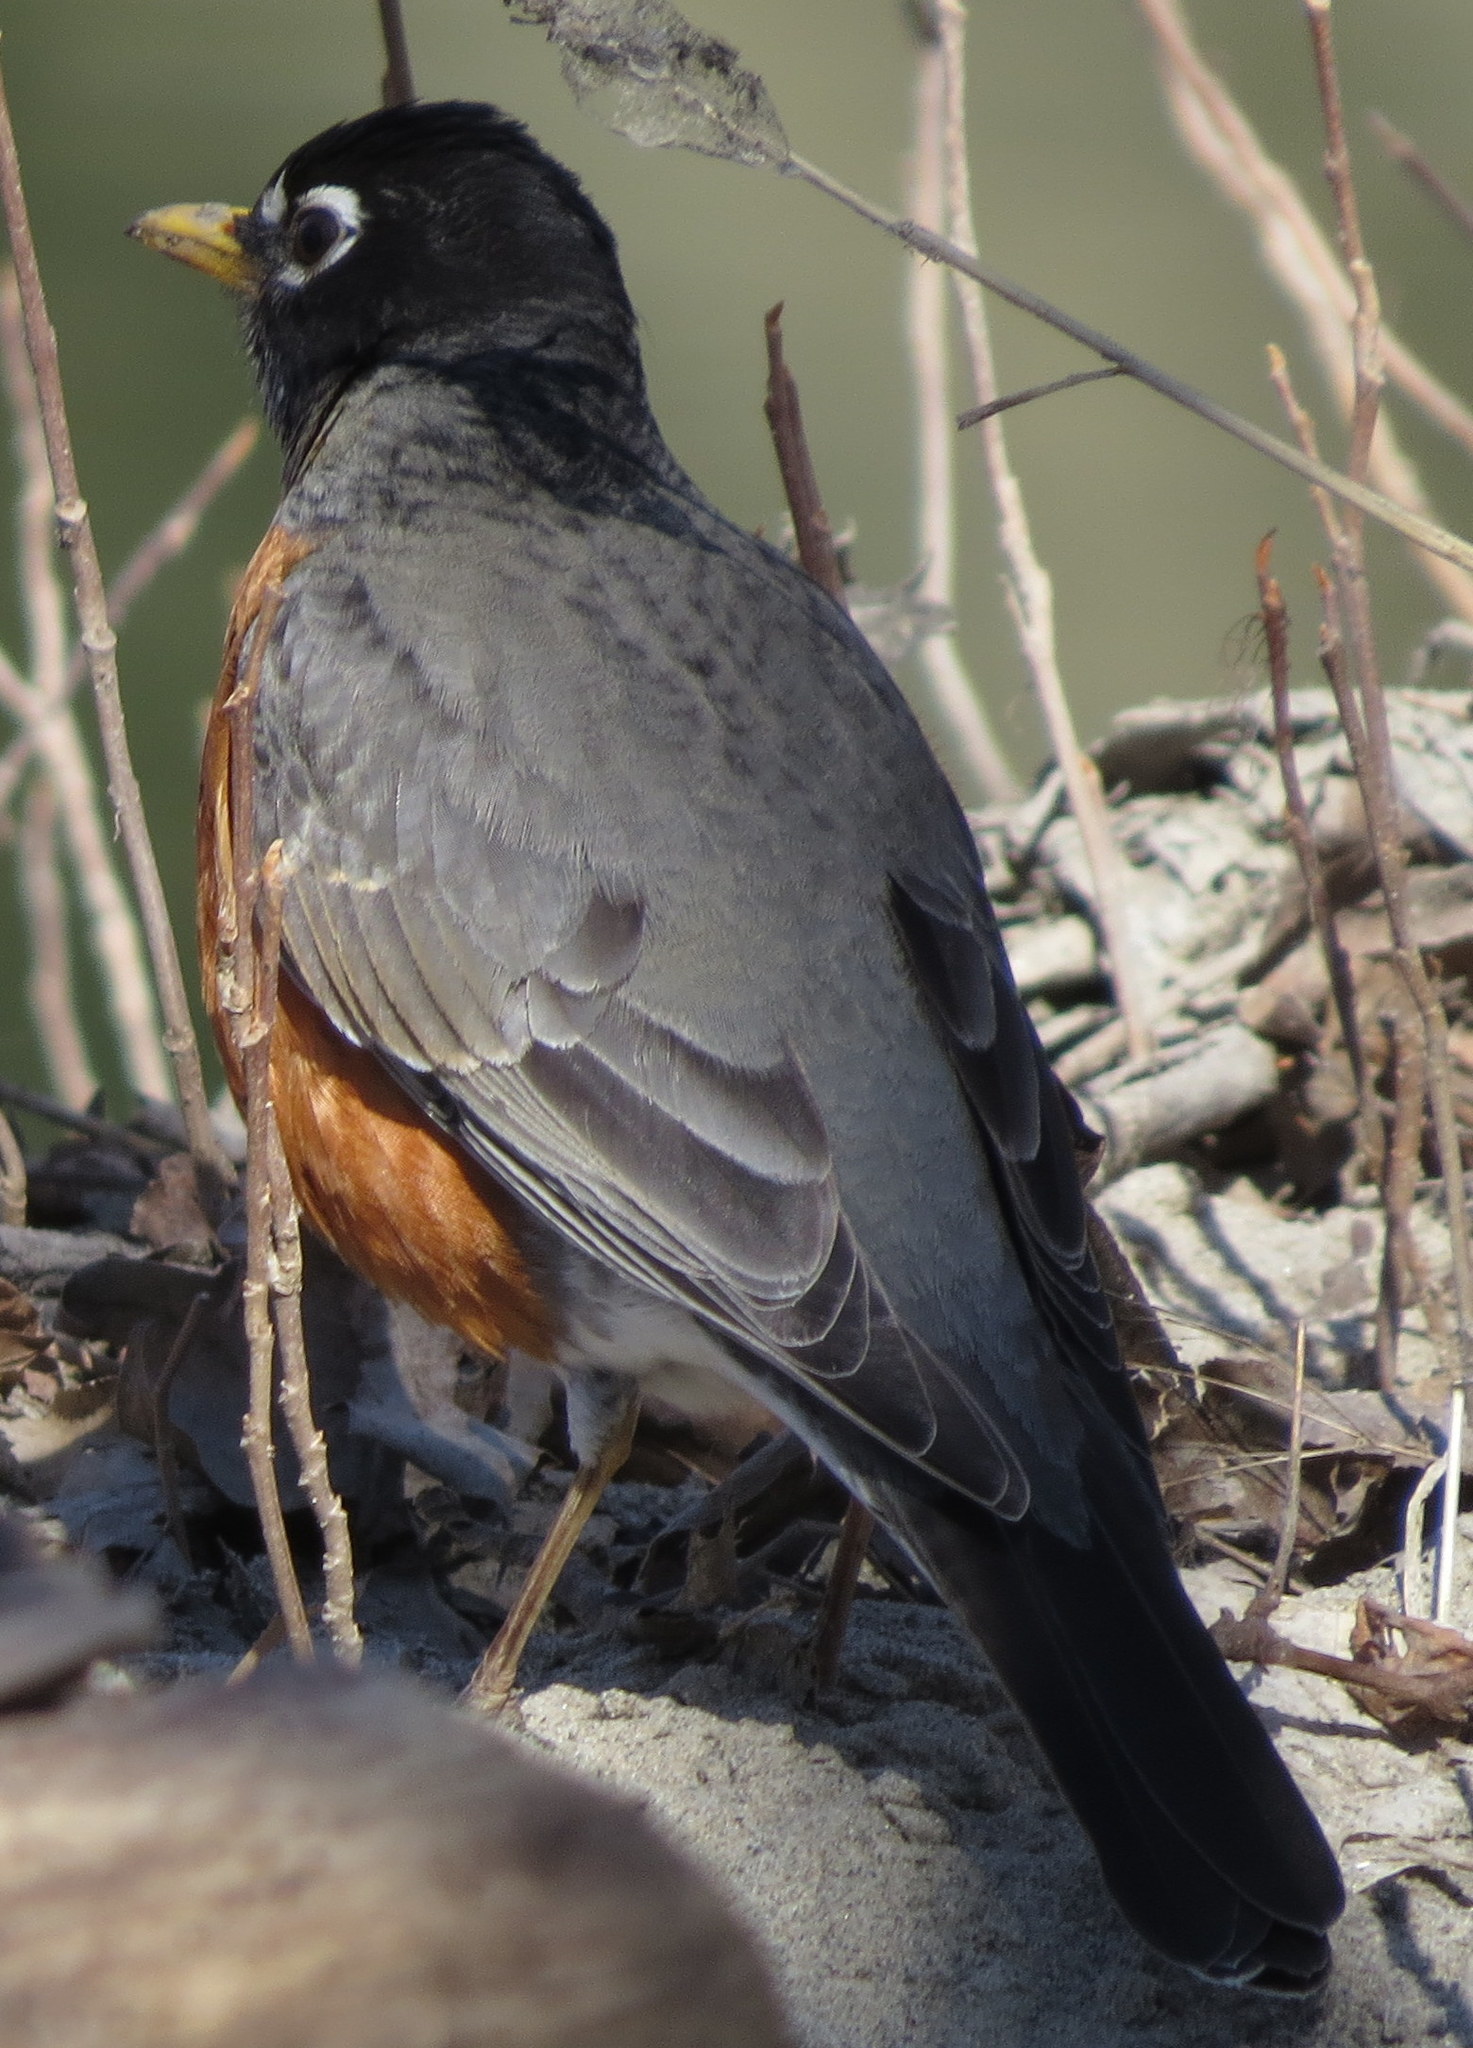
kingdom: Animalia
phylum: Chordata
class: Aves
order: Passeriformes
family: Turdidae
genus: Turdus
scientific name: Turdus migratorius
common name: American robin
